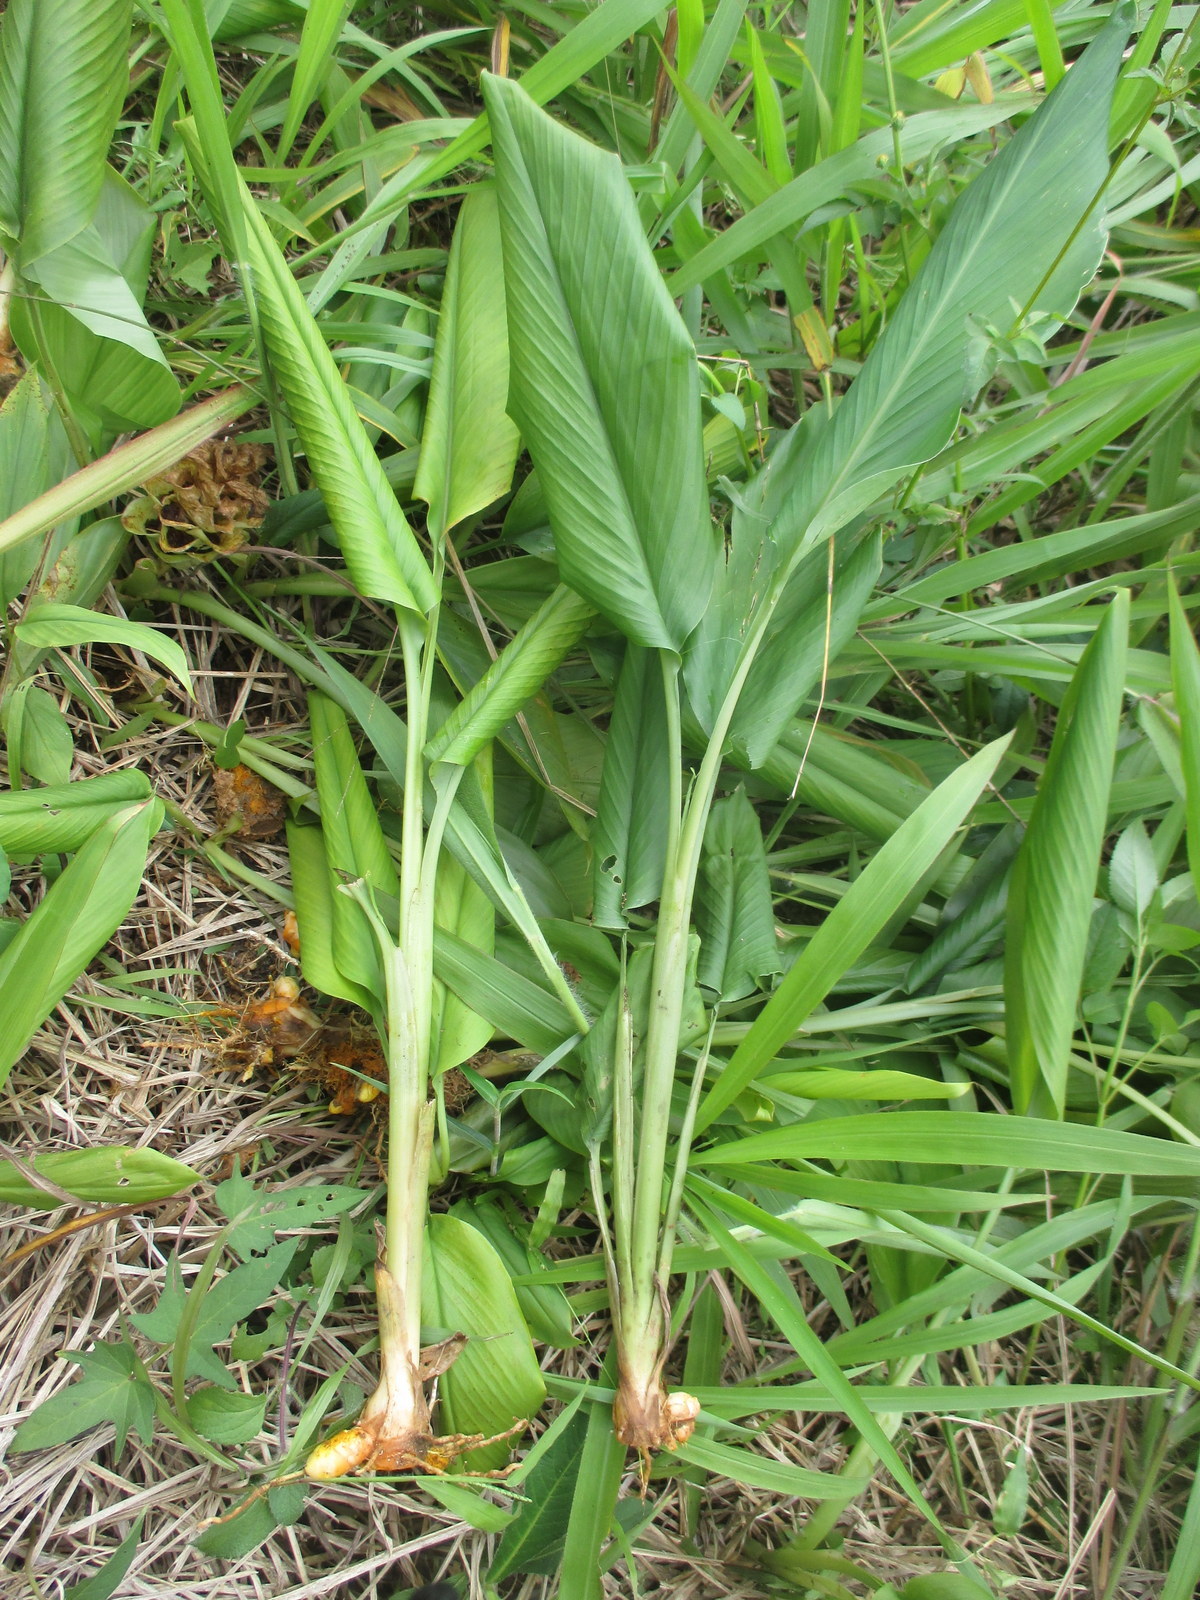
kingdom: Plantae
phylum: Tracheophyta
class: Liliopsida
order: Zingiberales
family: Zingiberaceae
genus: Curcuma
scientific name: Curcuma longa
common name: Turmeric
